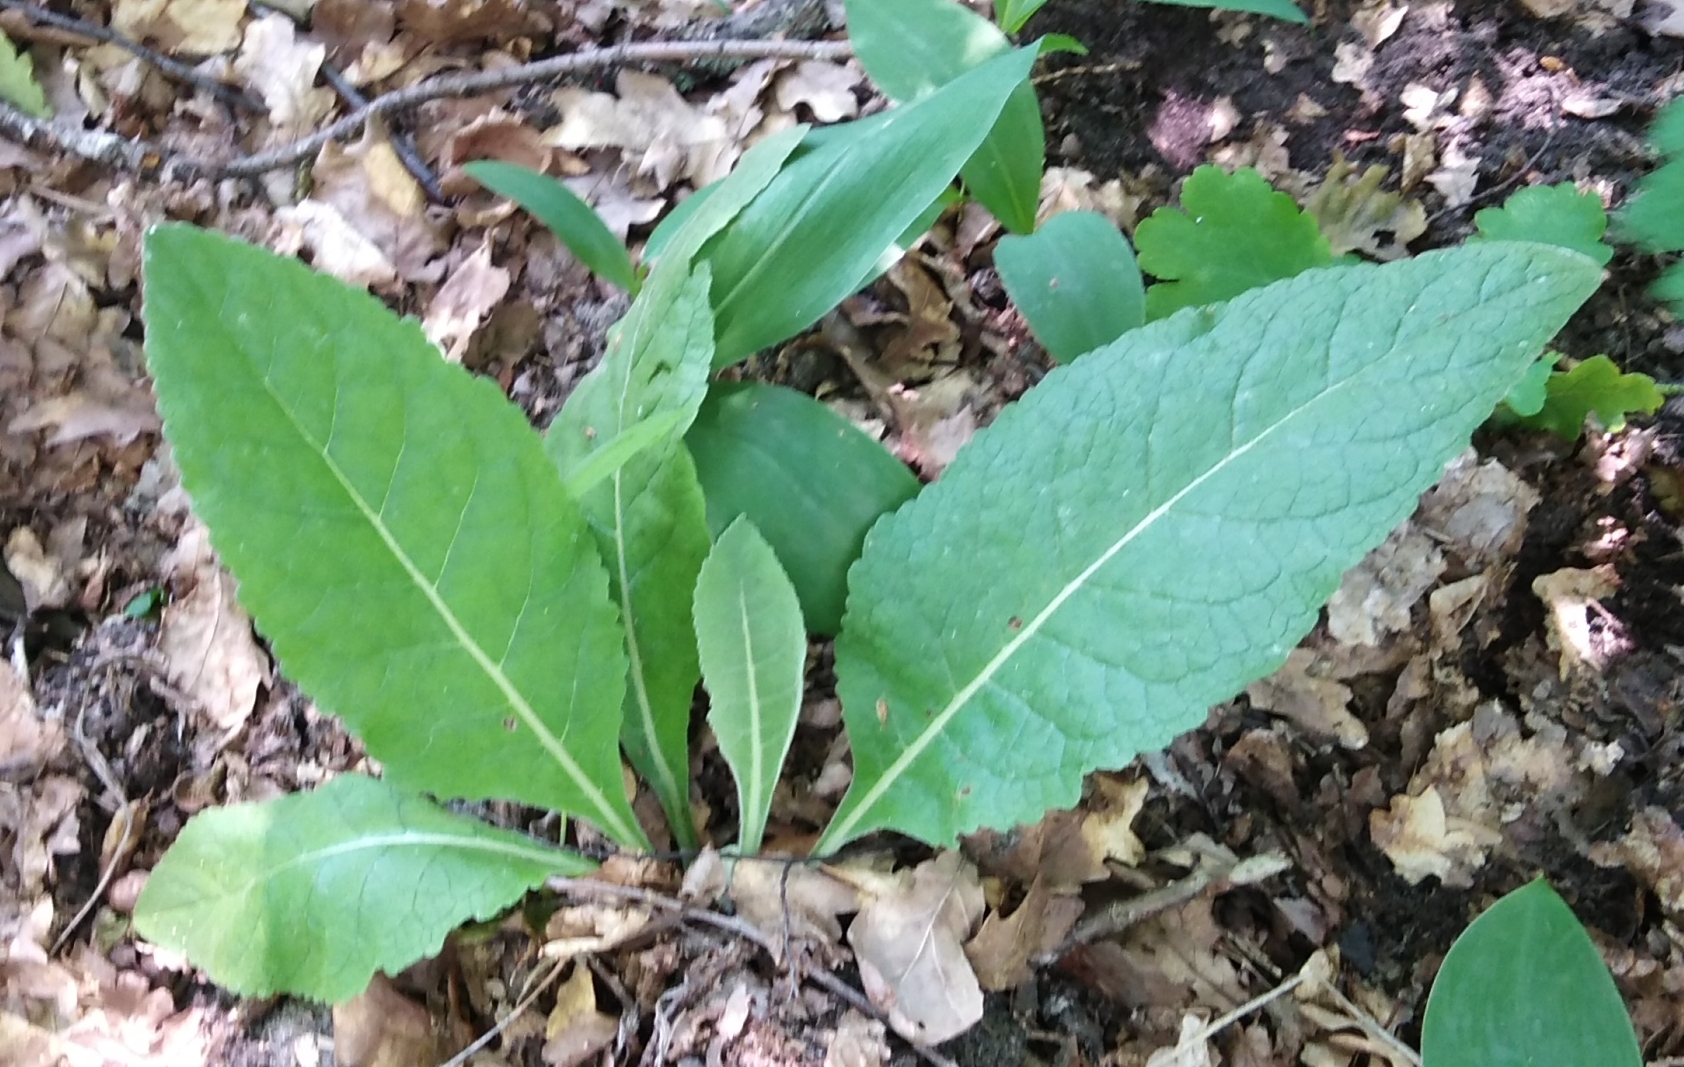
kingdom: Plantae
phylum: Tracheophyta
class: Magnoliopsida
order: Lamiales
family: Scrophulariaceae
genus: Verbascum
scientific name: Verbascum lychnitis
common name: White mullein
